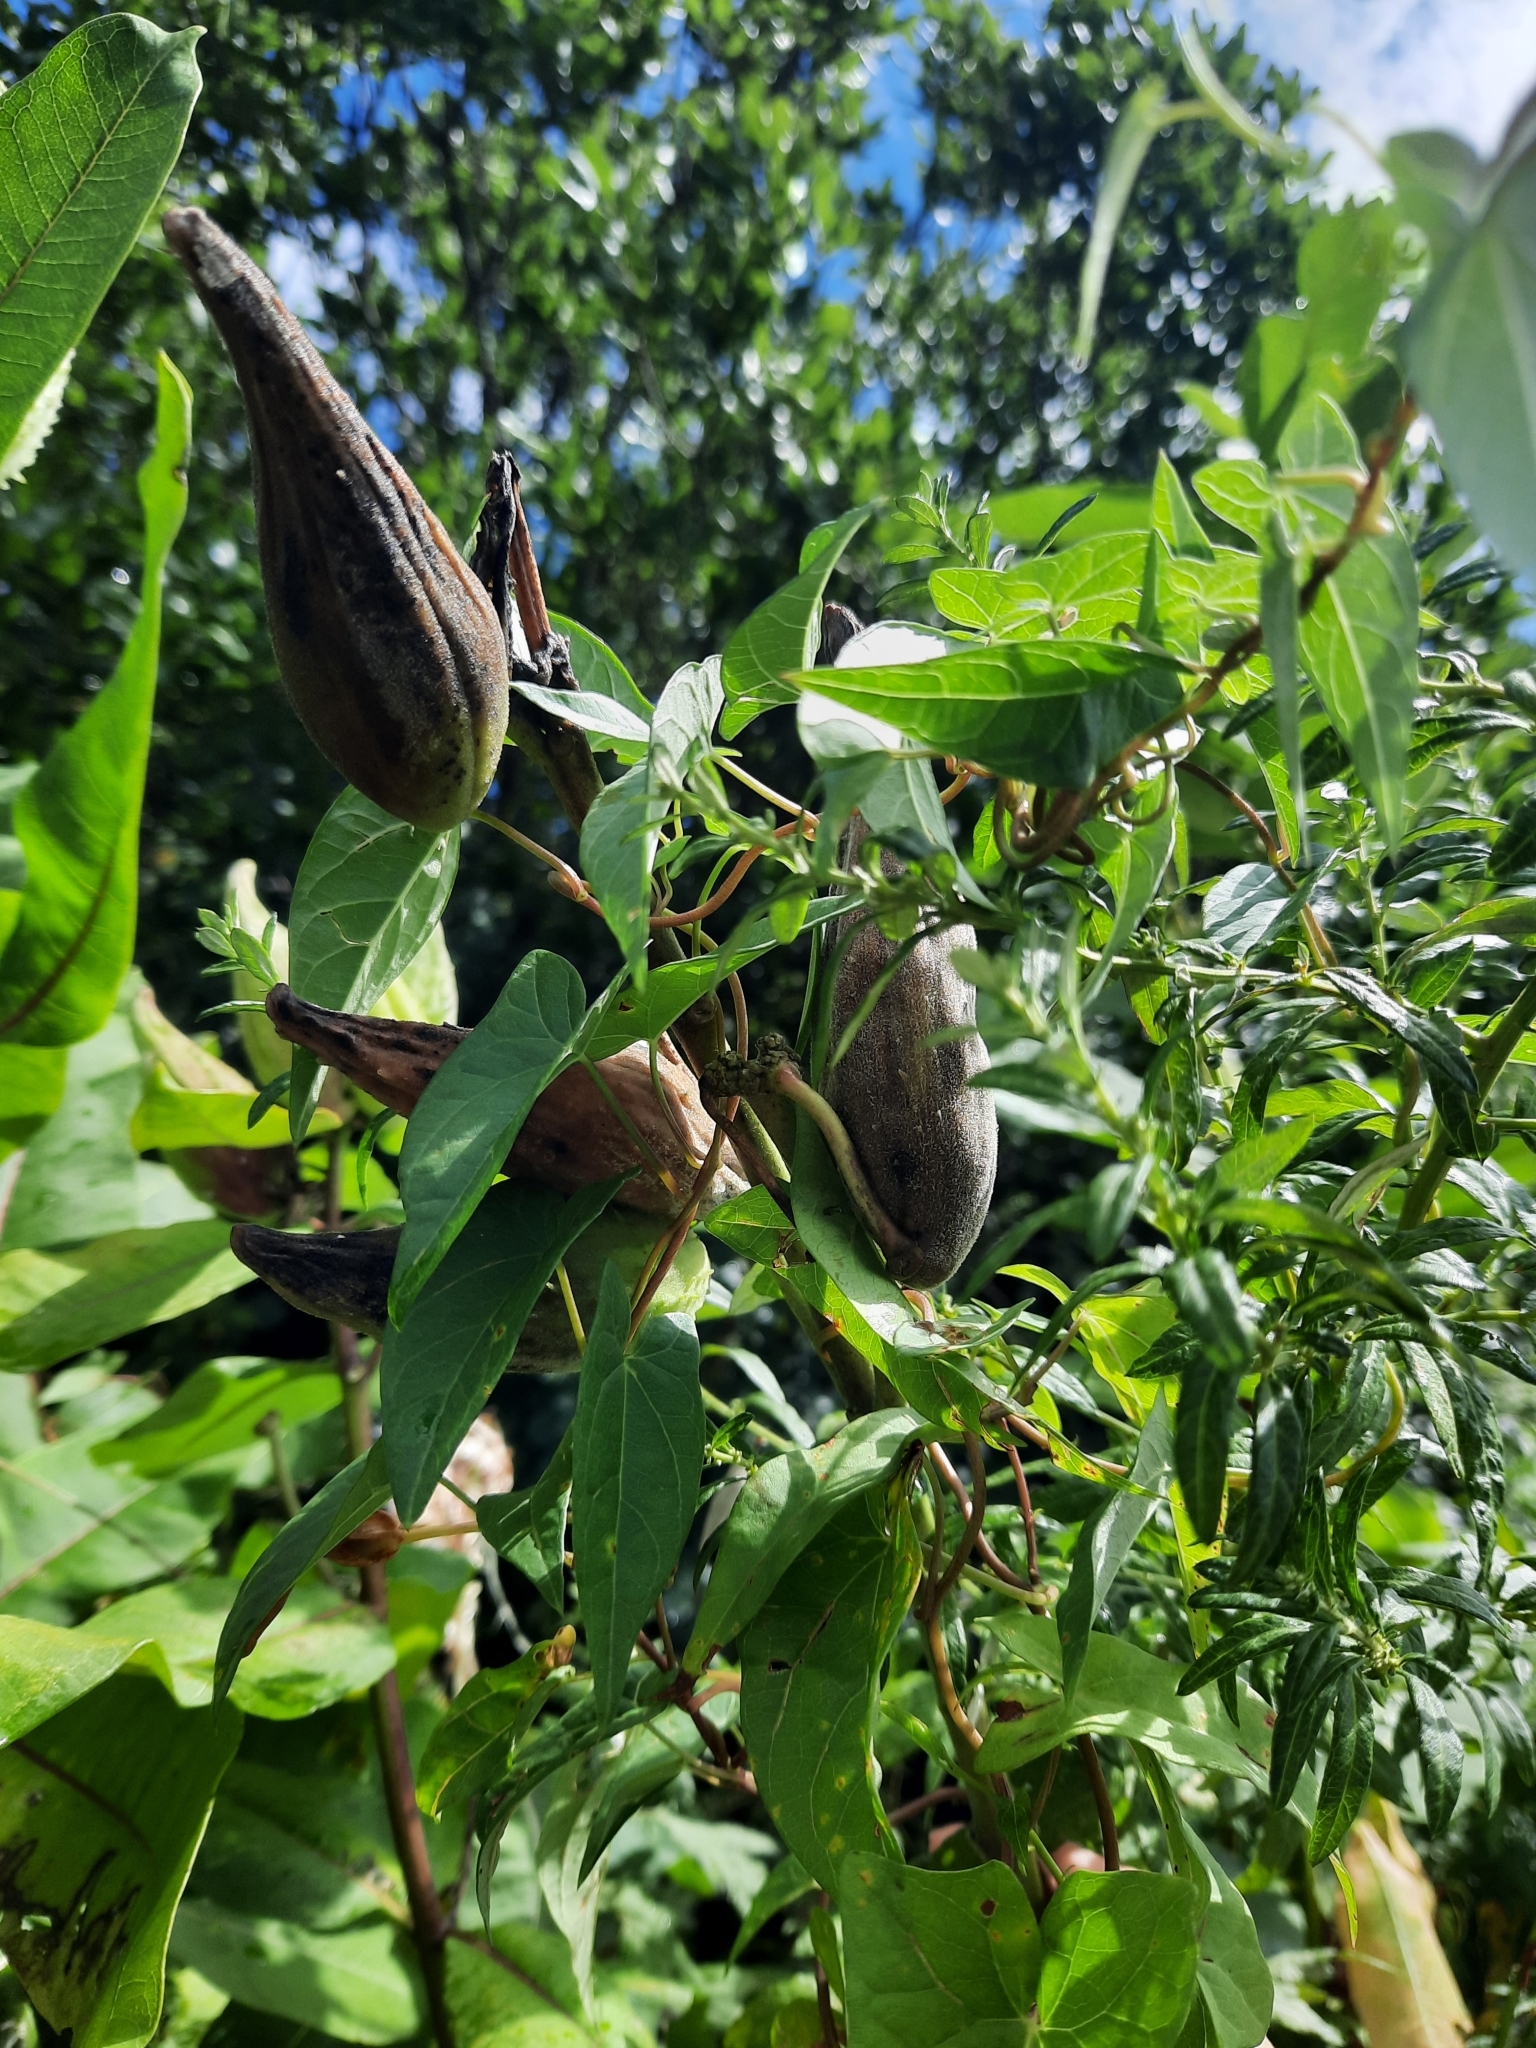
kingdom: Plantae
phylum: Tracheophyta
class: Magnoliopsida
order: Gentianales
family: Apocynaceae
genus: Asclepias
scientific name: Asclepias purpurascens
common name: Purple milkweed
